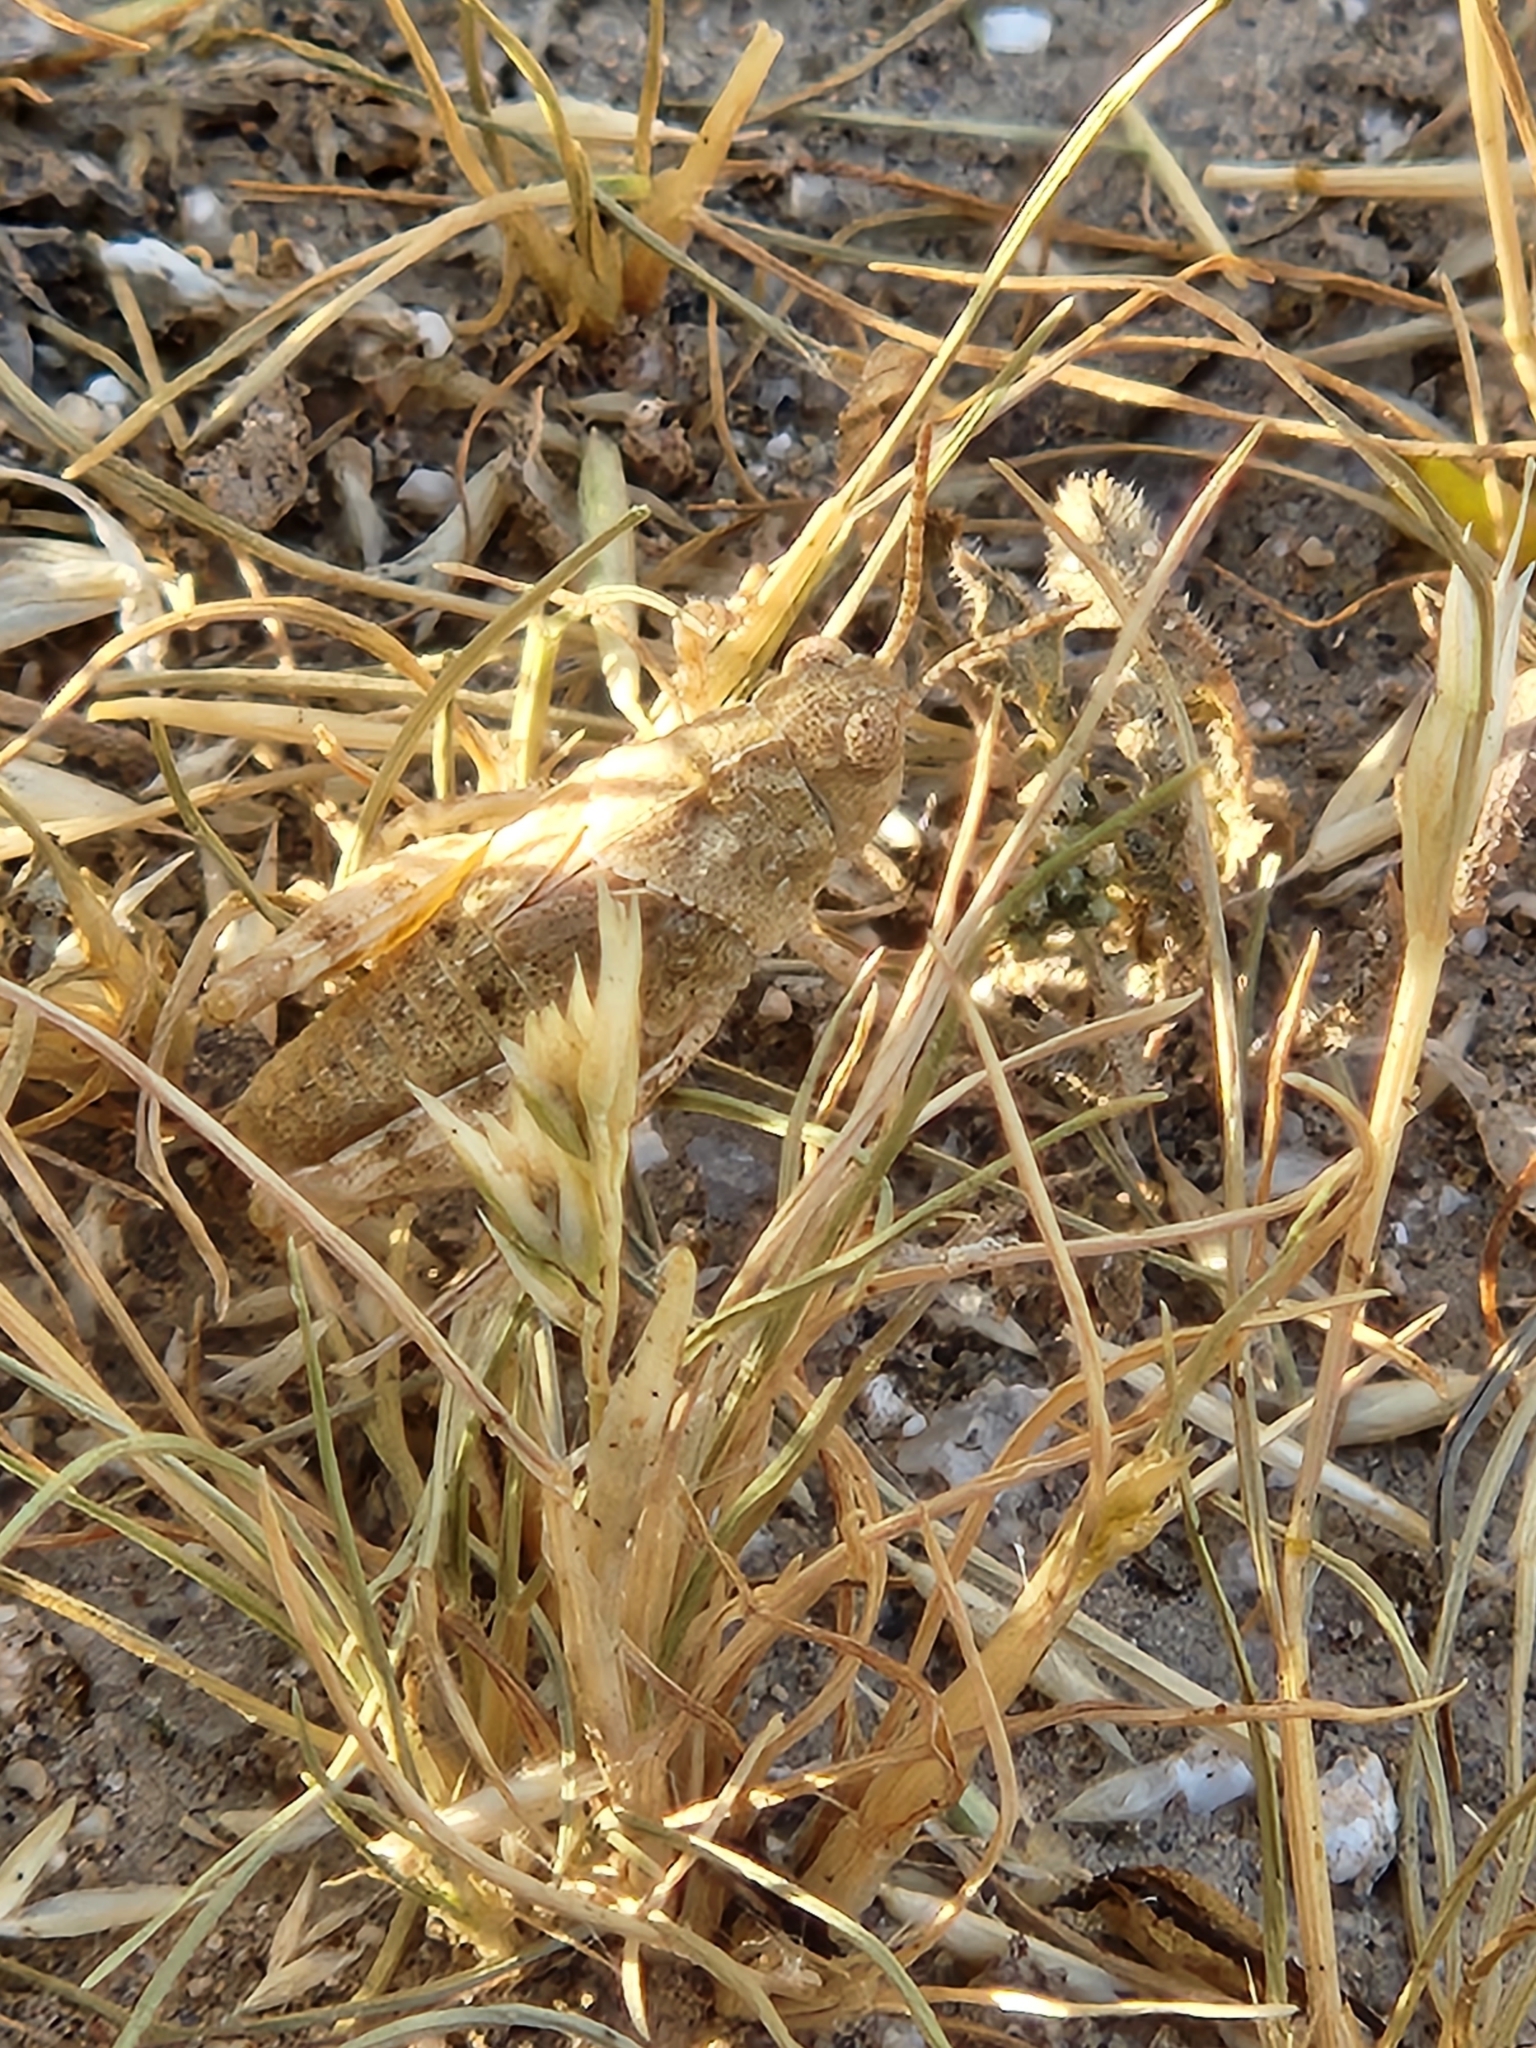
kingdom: Animalia
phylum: Arthropoda
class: Insecta
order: Orthoptera
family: Acrididae
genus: Trimerotropis
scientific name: Trimerotropis pallidipennis
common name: Pallid-winged grasshopper
